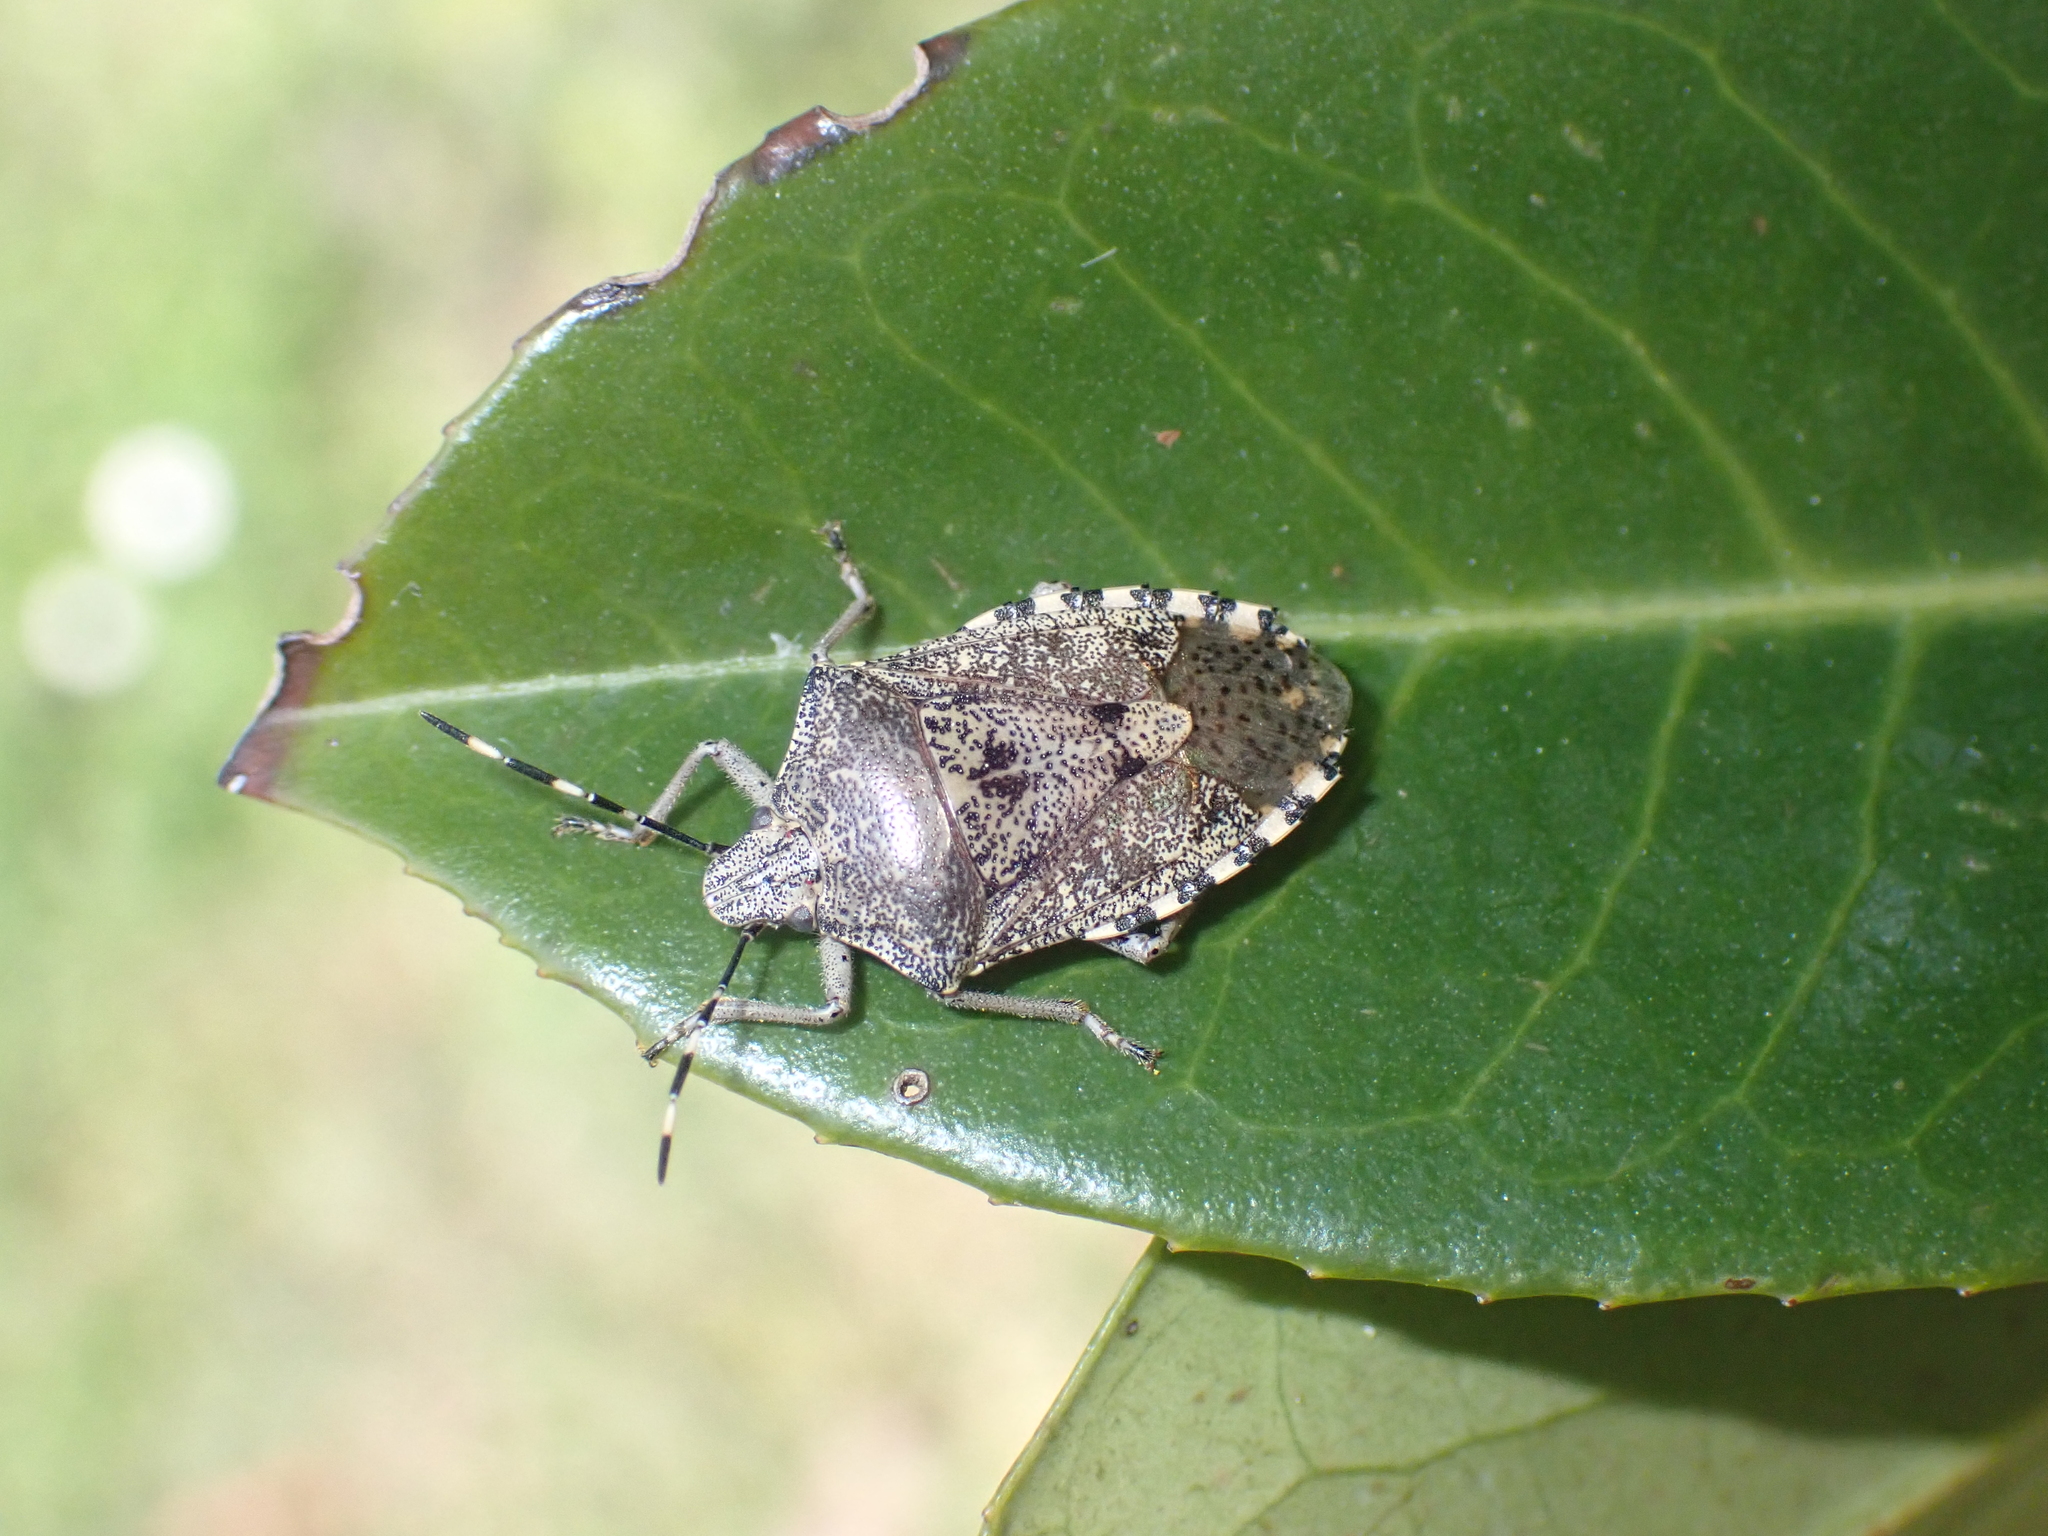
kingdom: Animalia
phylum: Arthropoda
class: Insecta
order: Hemiptera
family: Pentatomidae
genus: Rhaphigaster
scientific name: Rhaphigaster nebulosa
